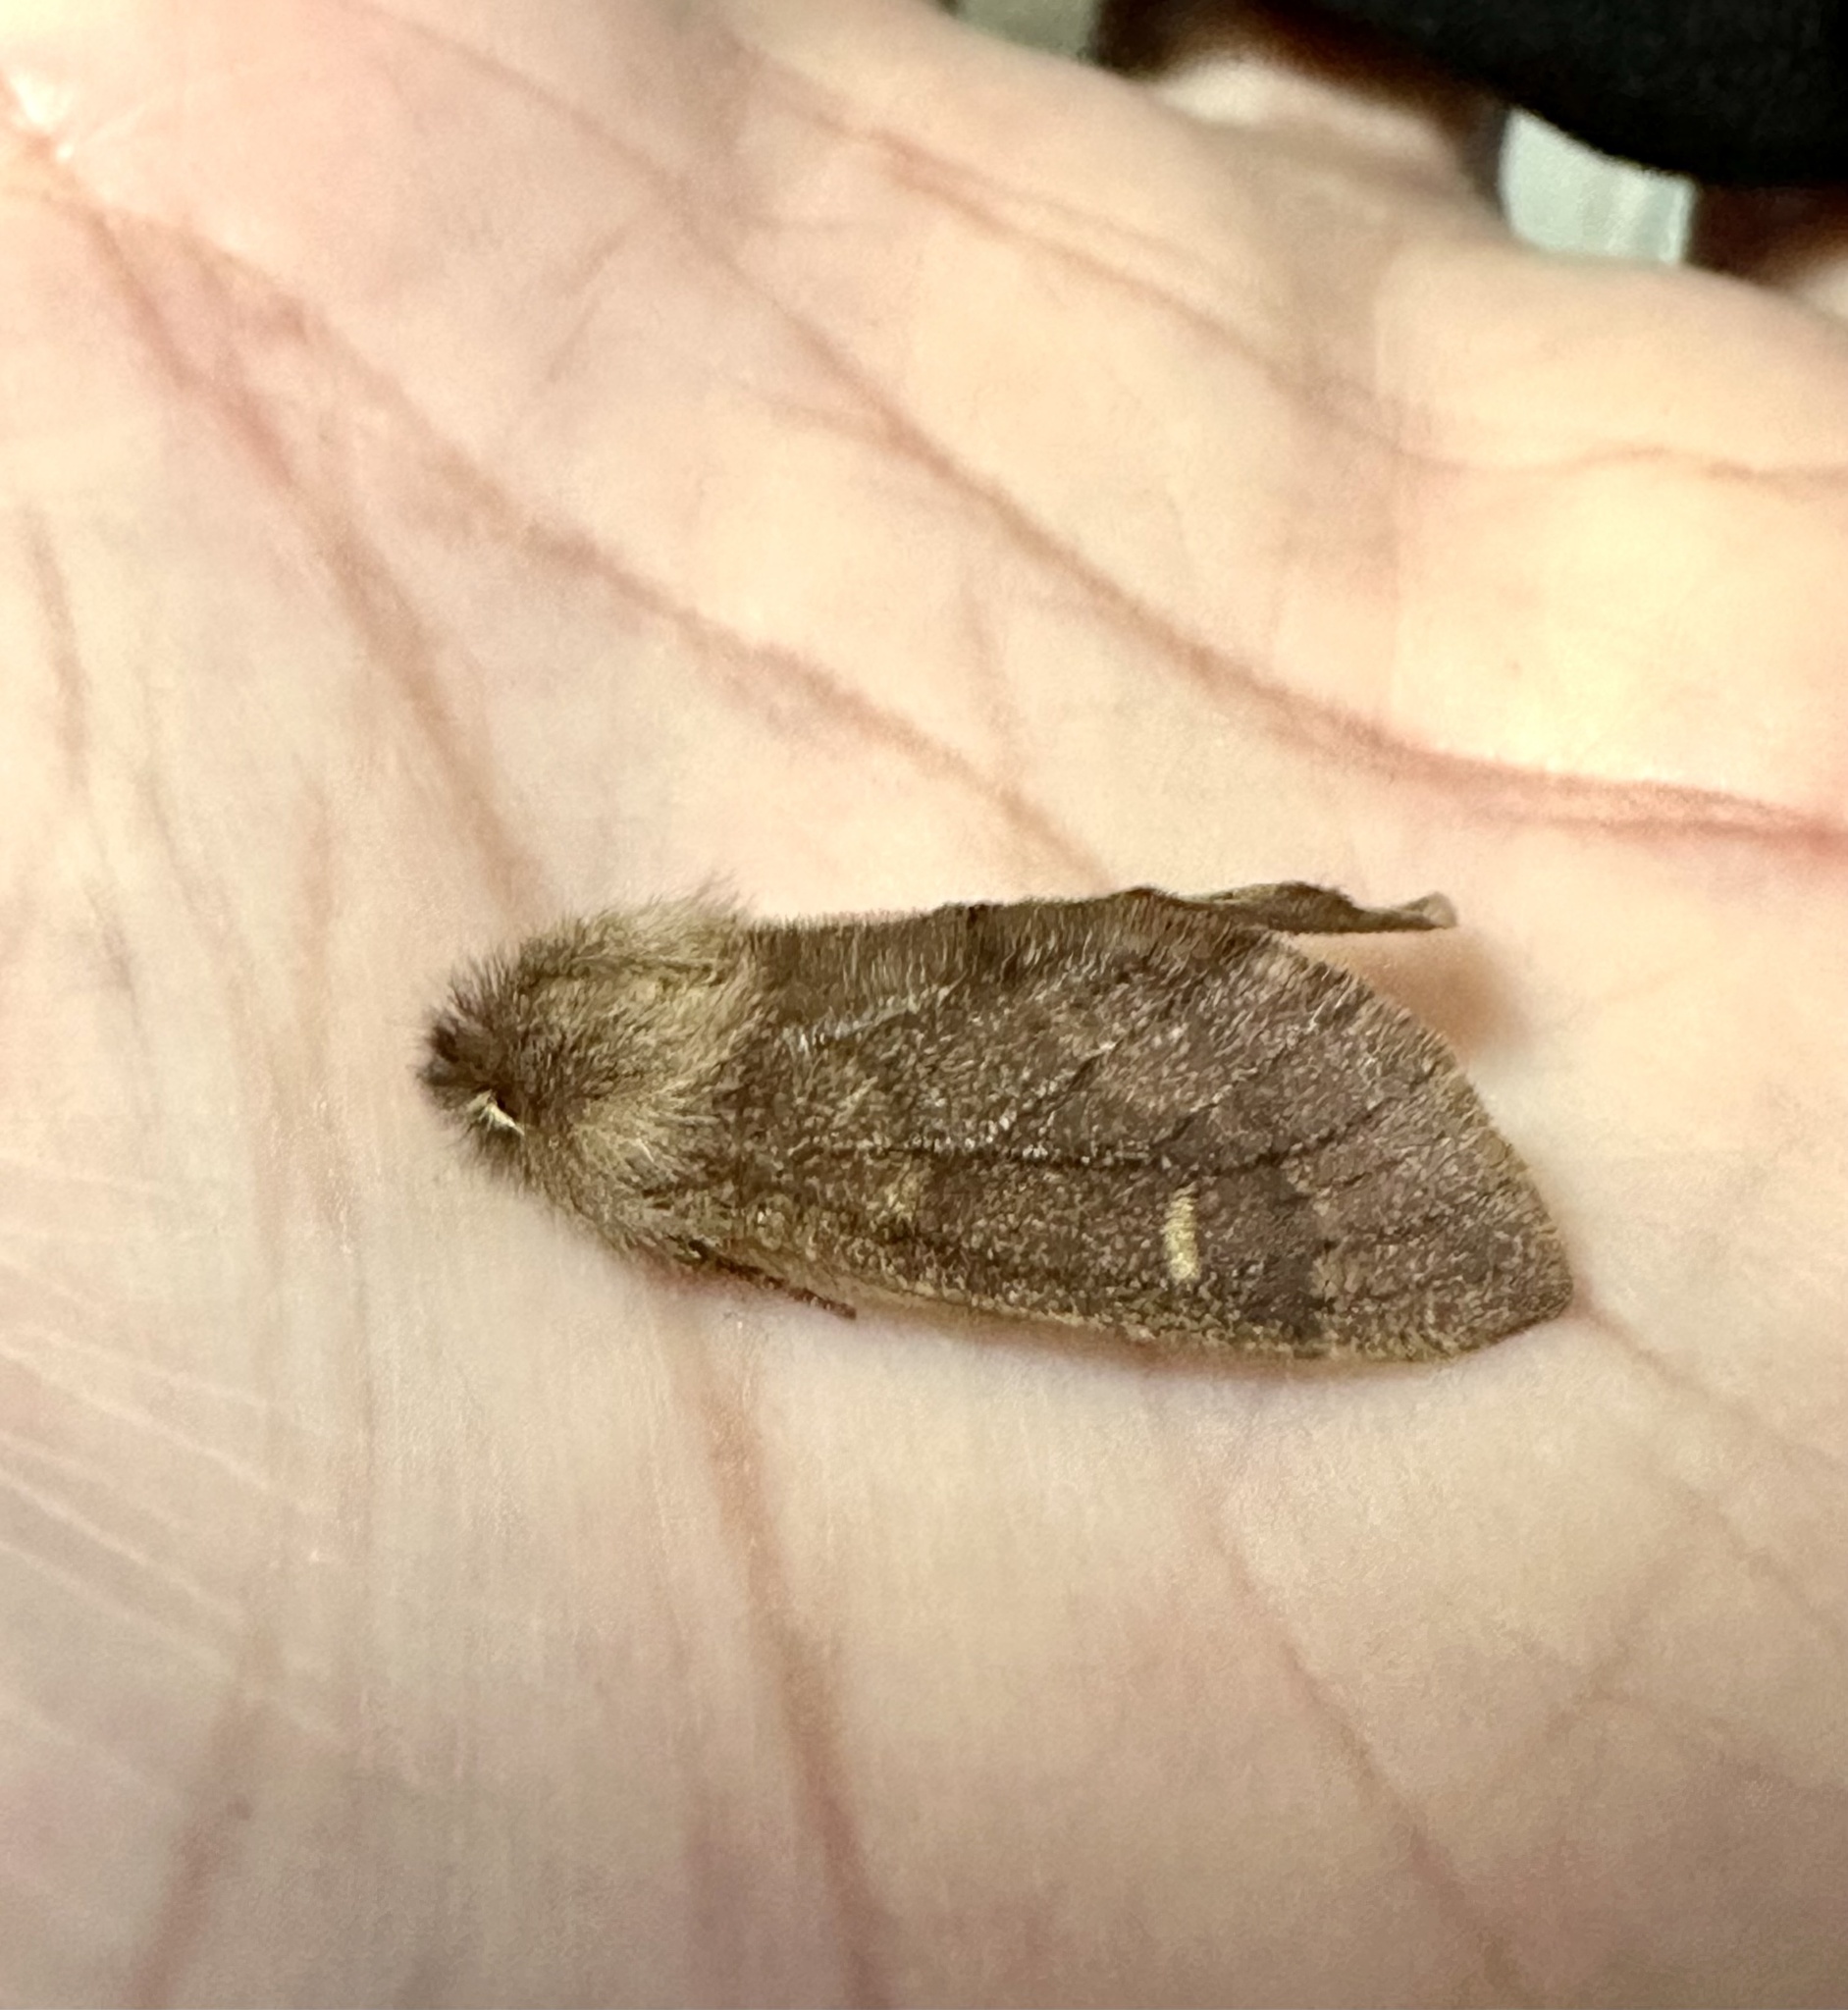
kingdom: Animalia
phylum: Arthropoda
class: Insecta
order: Lepidoptera
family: Notodontidae
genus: Ptilophora
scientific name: Ptilophora nohirae
